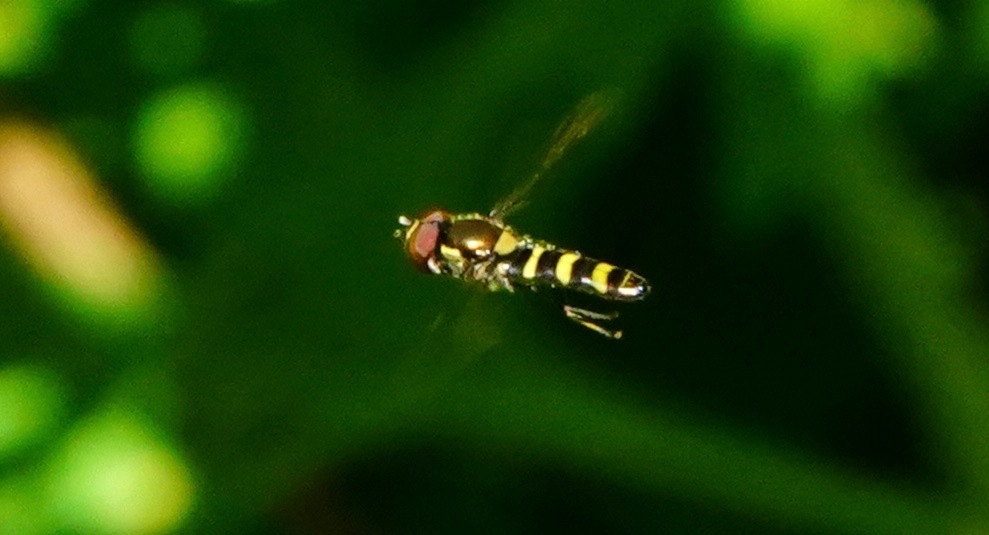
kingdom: Animalia
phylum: Arthropoda
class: Insecta
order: Diptera
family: Syrphidae
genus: Fazia
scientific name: Fazia micrura
